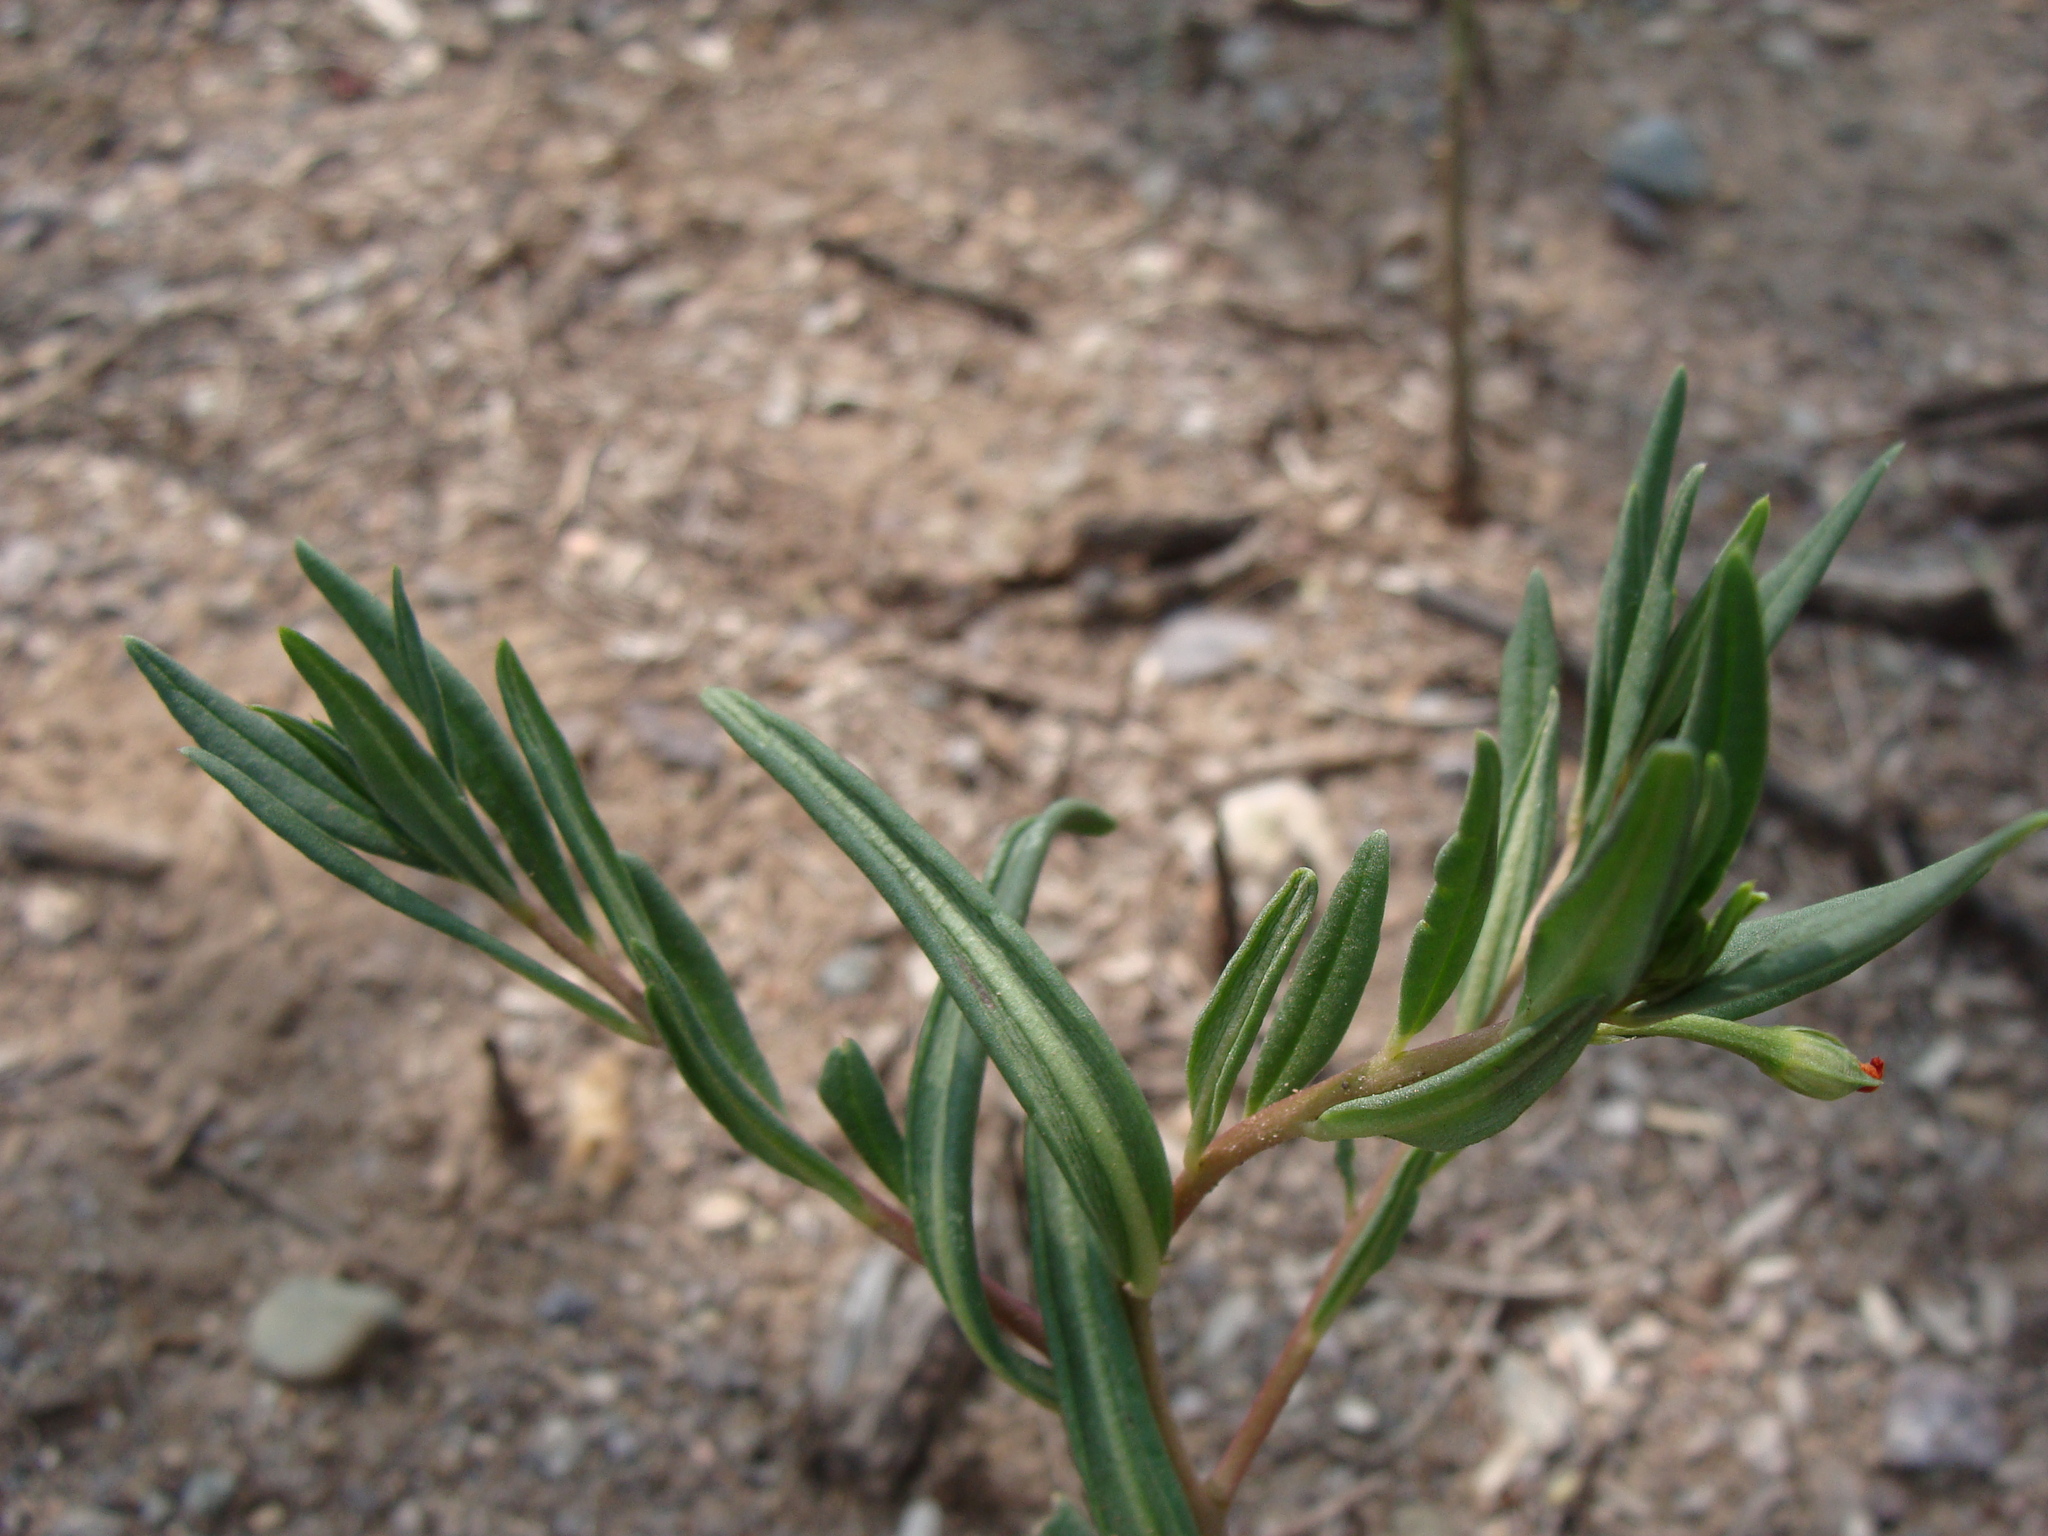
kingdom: Plantae
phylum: Tracheophyta
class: Magnoliopsida
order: Caryophyllales
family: Montiaceae
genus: Phemeranthus
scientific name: Phemeranthus aurantiacus
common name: Orange fameflower
